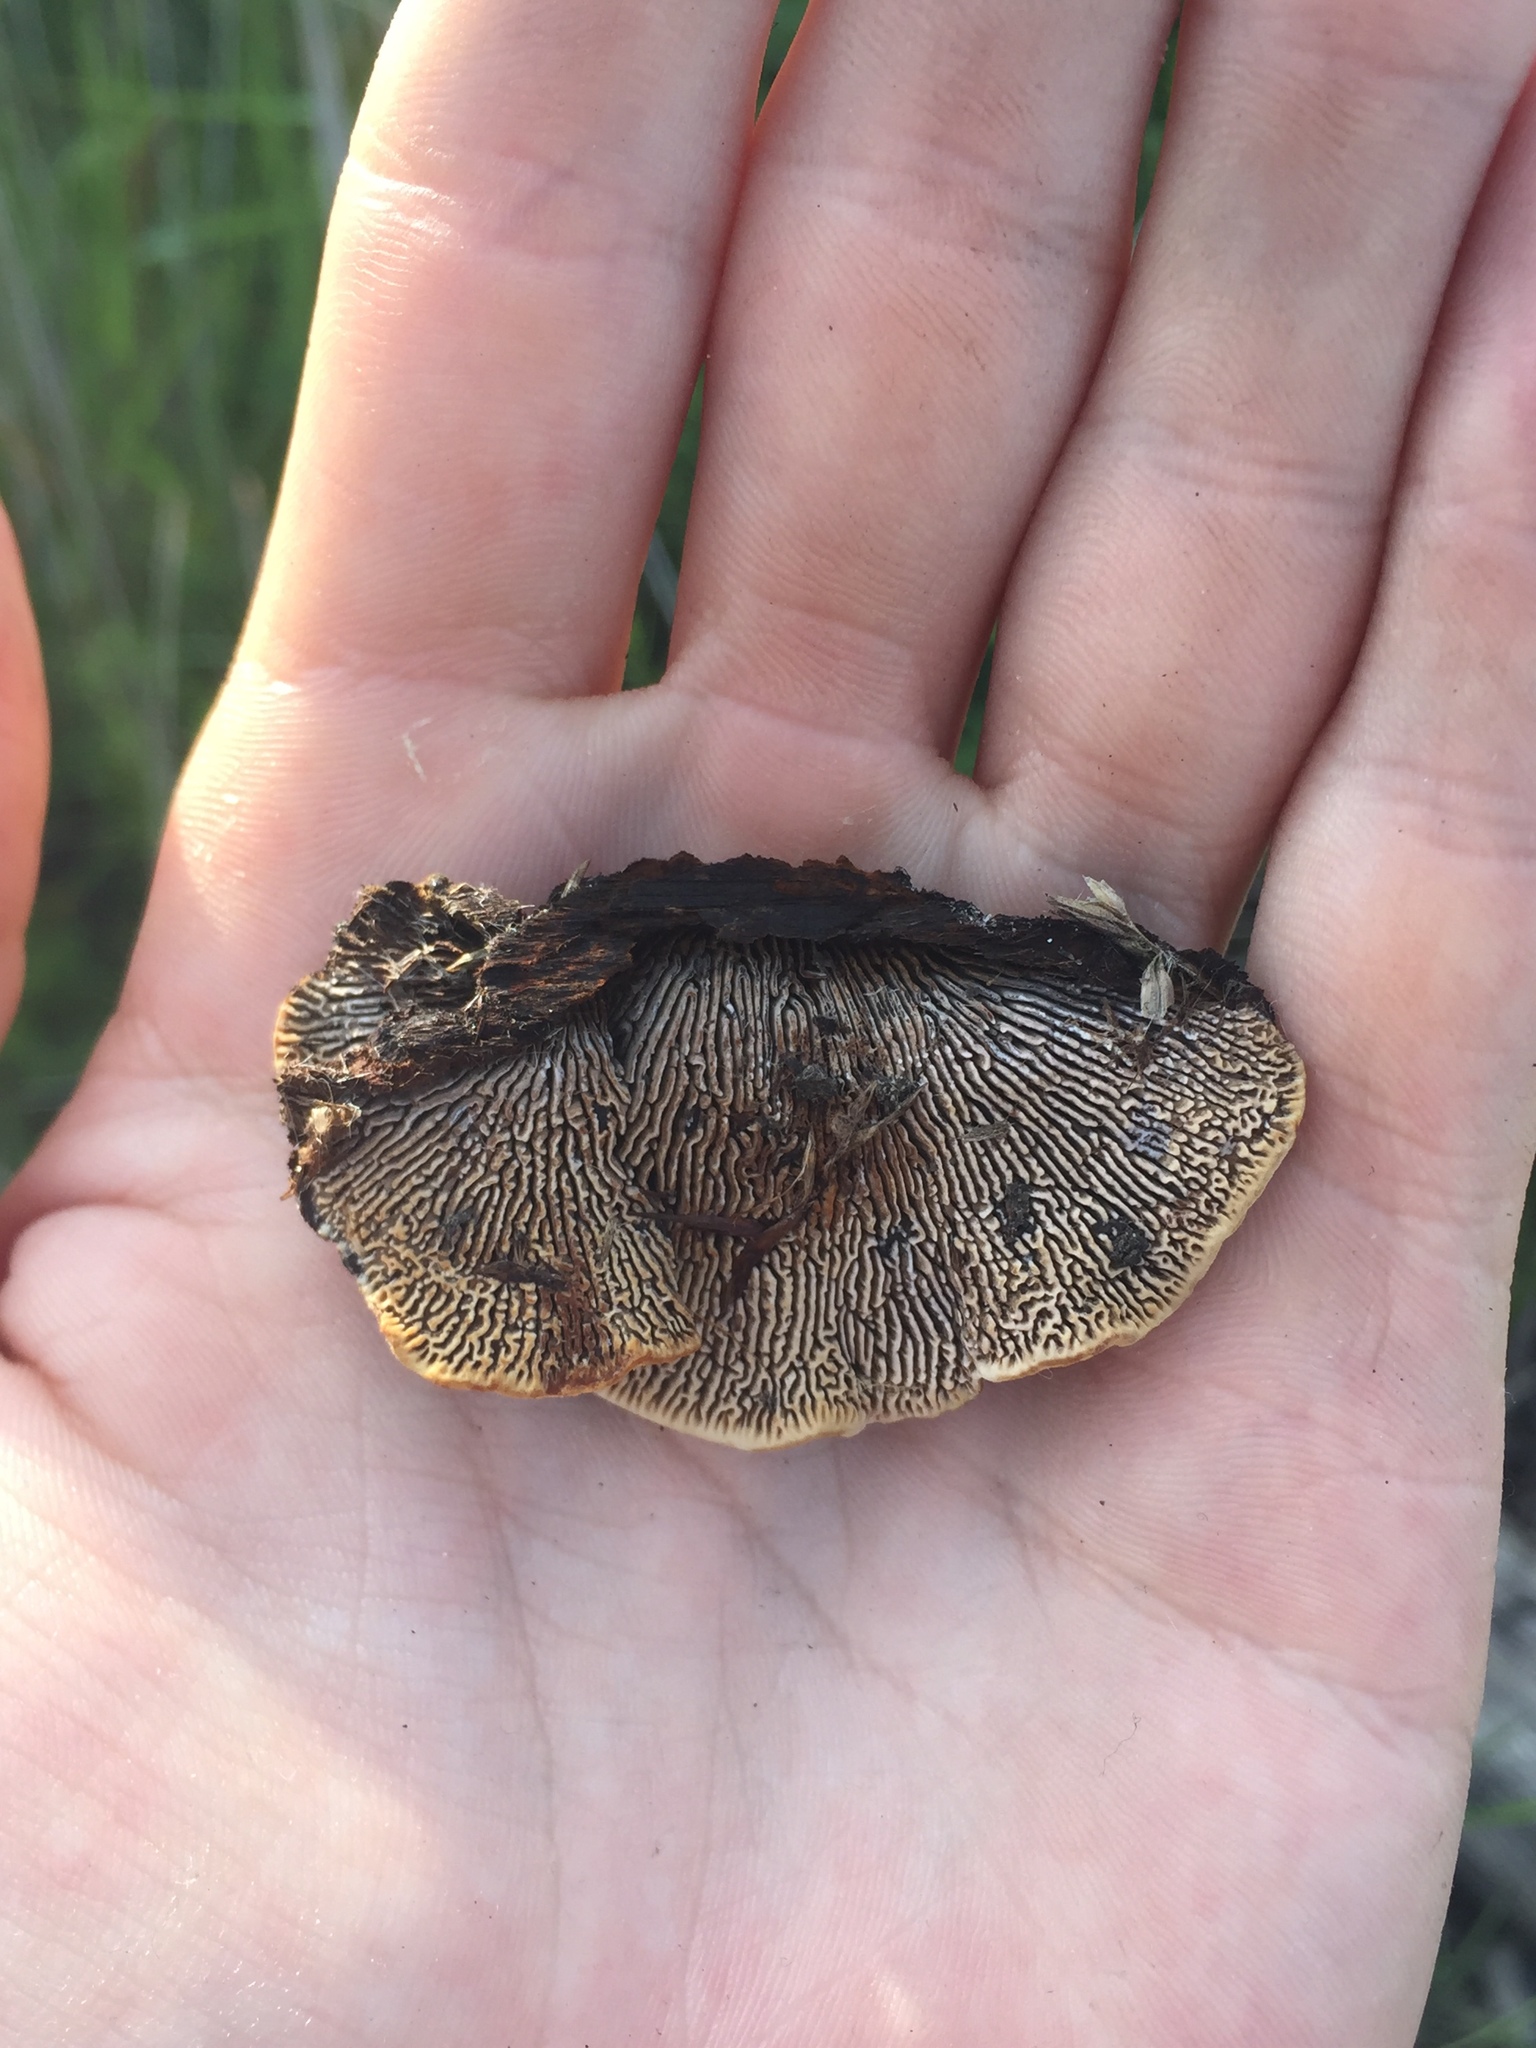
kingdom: Fungi
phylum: Basidiomycota
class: Agaricomycetes
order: Gloeophyllales
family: Gloeophyllaceae
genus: Gloeophyllum
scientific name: Gloeophyllum sepiarium
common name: Conifer mazegill
